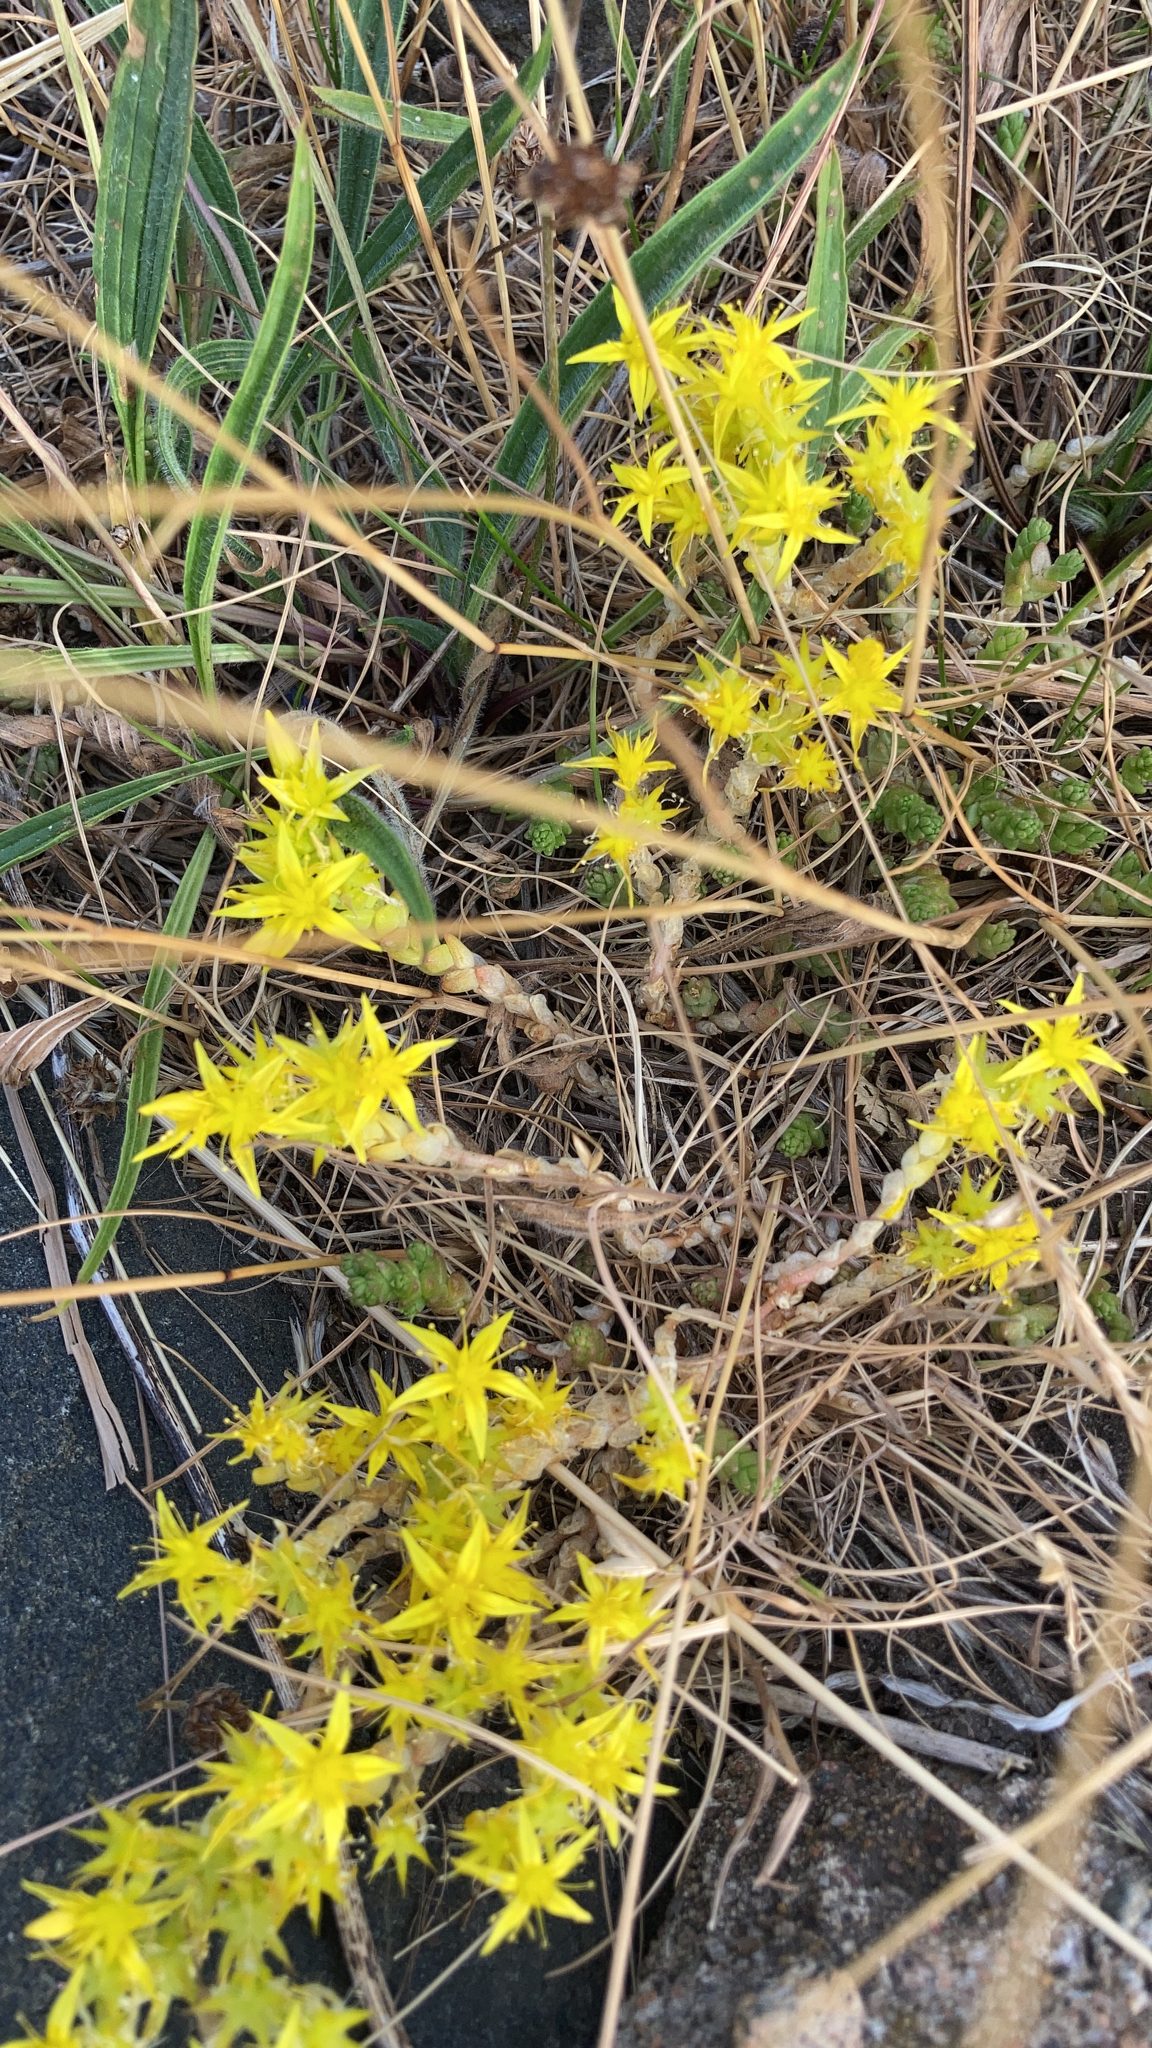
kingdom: Plantae
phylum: Tracheophyta
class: Magnoliopsida
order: Saxifragales
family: Crassulaceae
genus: Sedum
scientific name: Sedum acre
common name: Biting stonecrop
